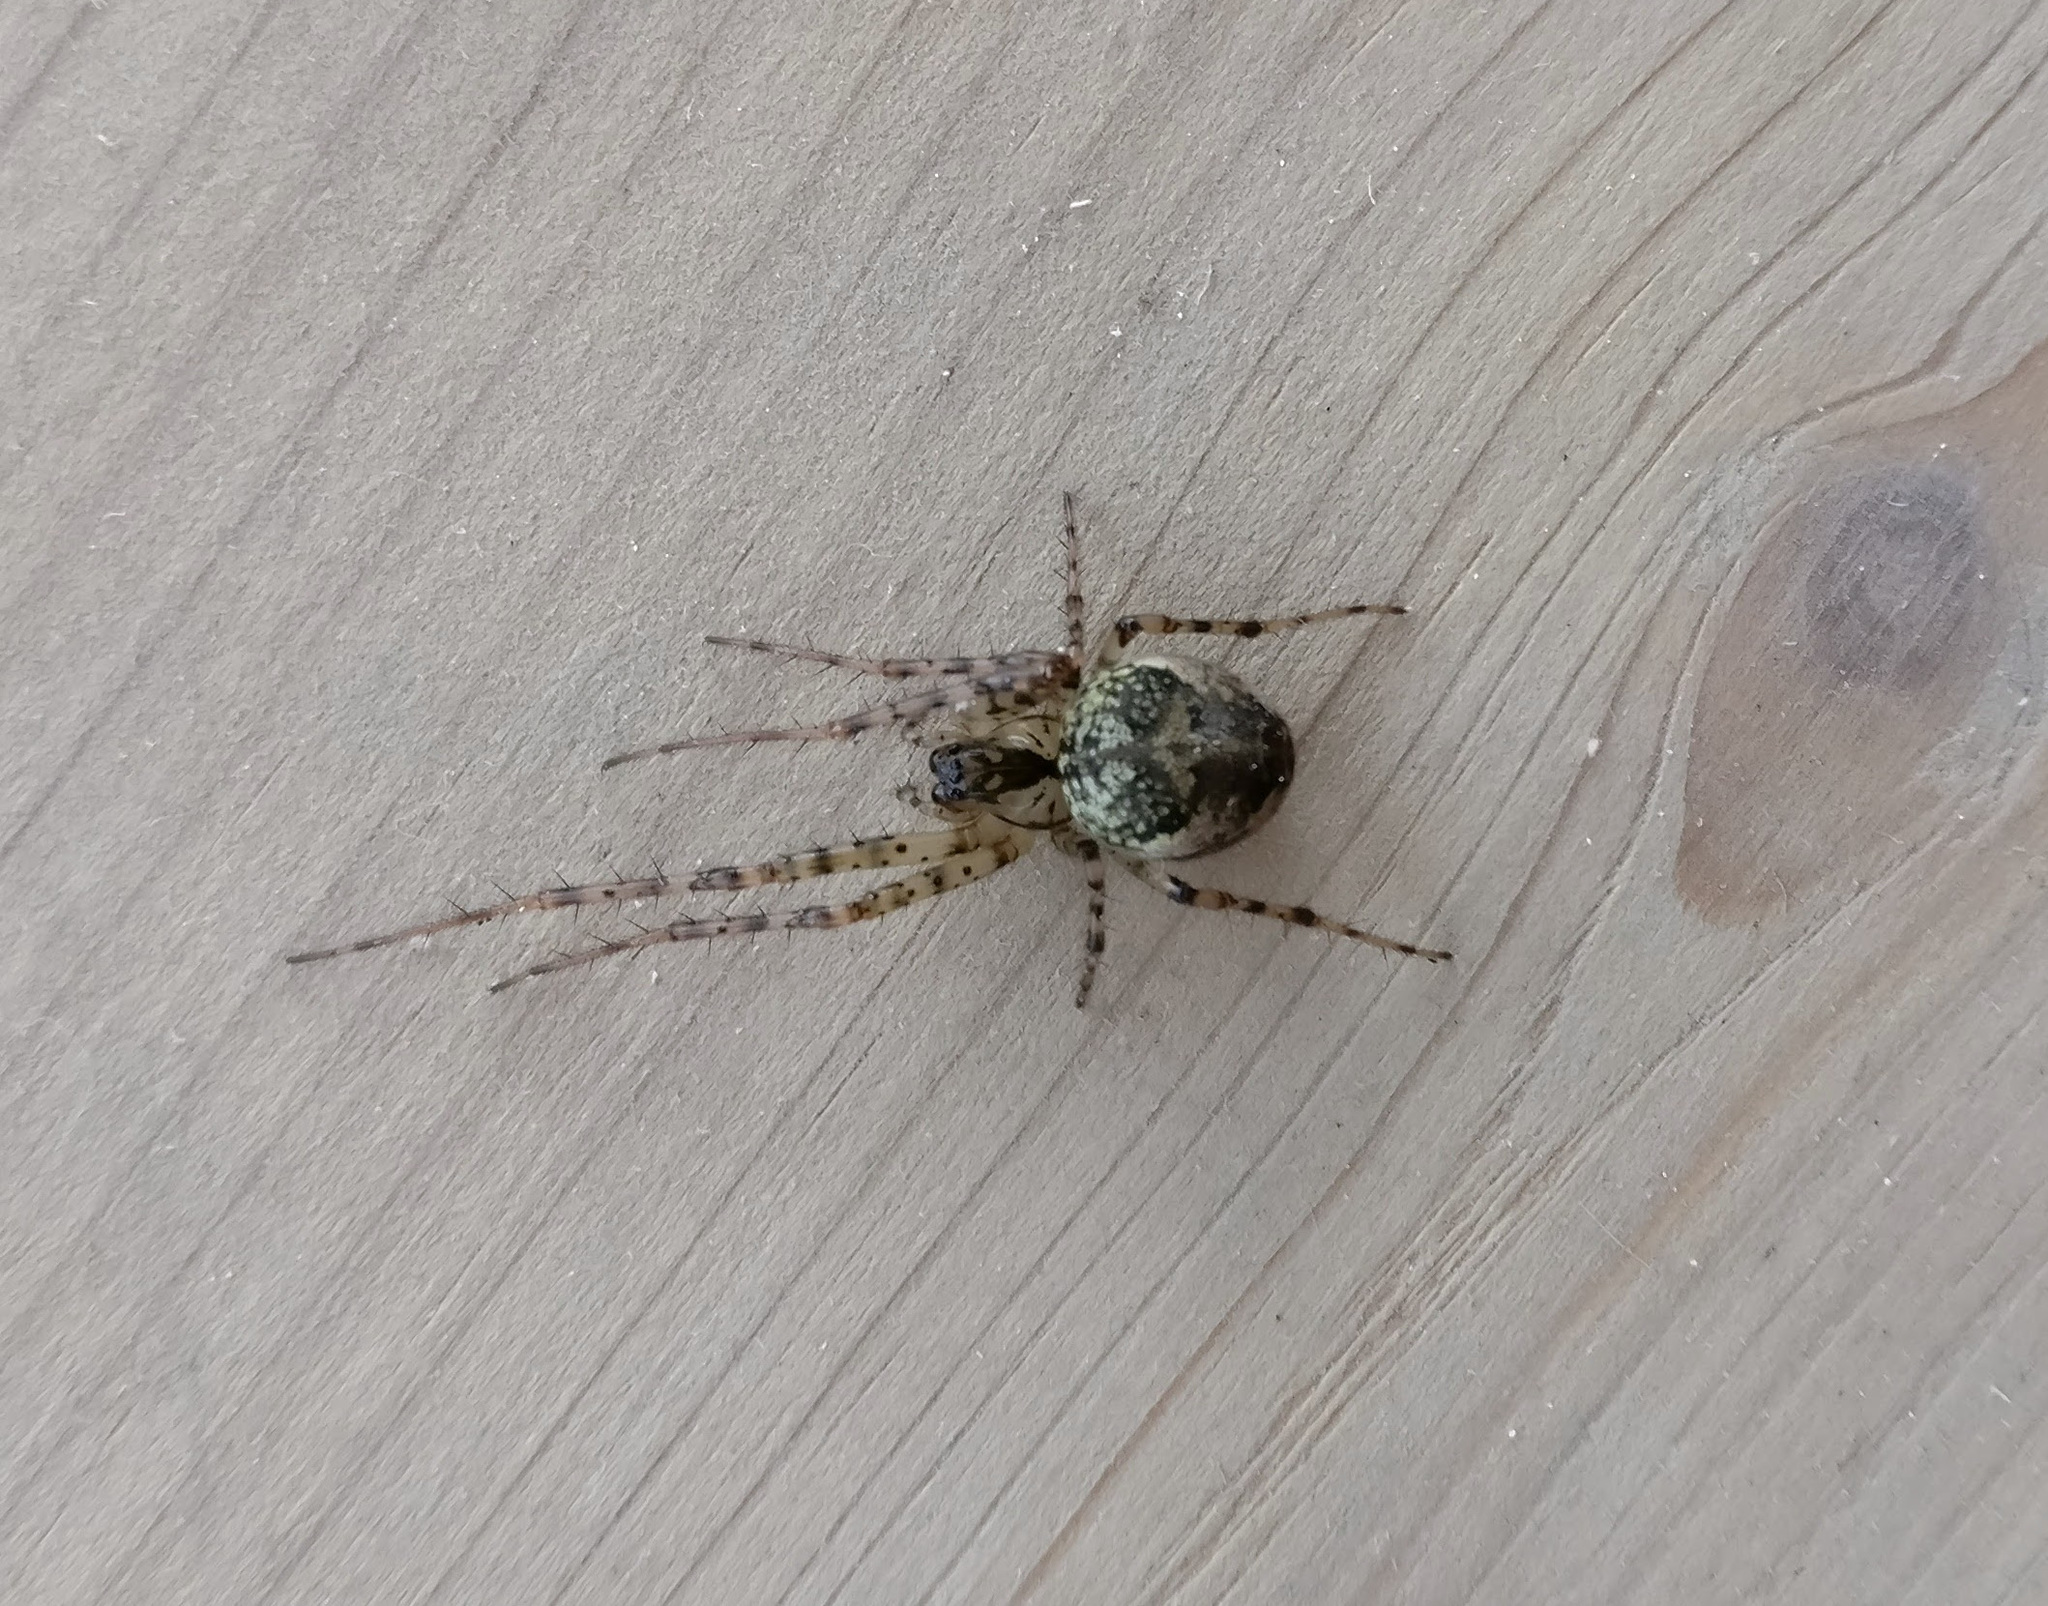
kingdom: Animalia
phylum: Arthropoda
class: Arachnida
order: Araneae
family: Tetragnathidae
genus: Metellina
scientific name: Metellina merianae
